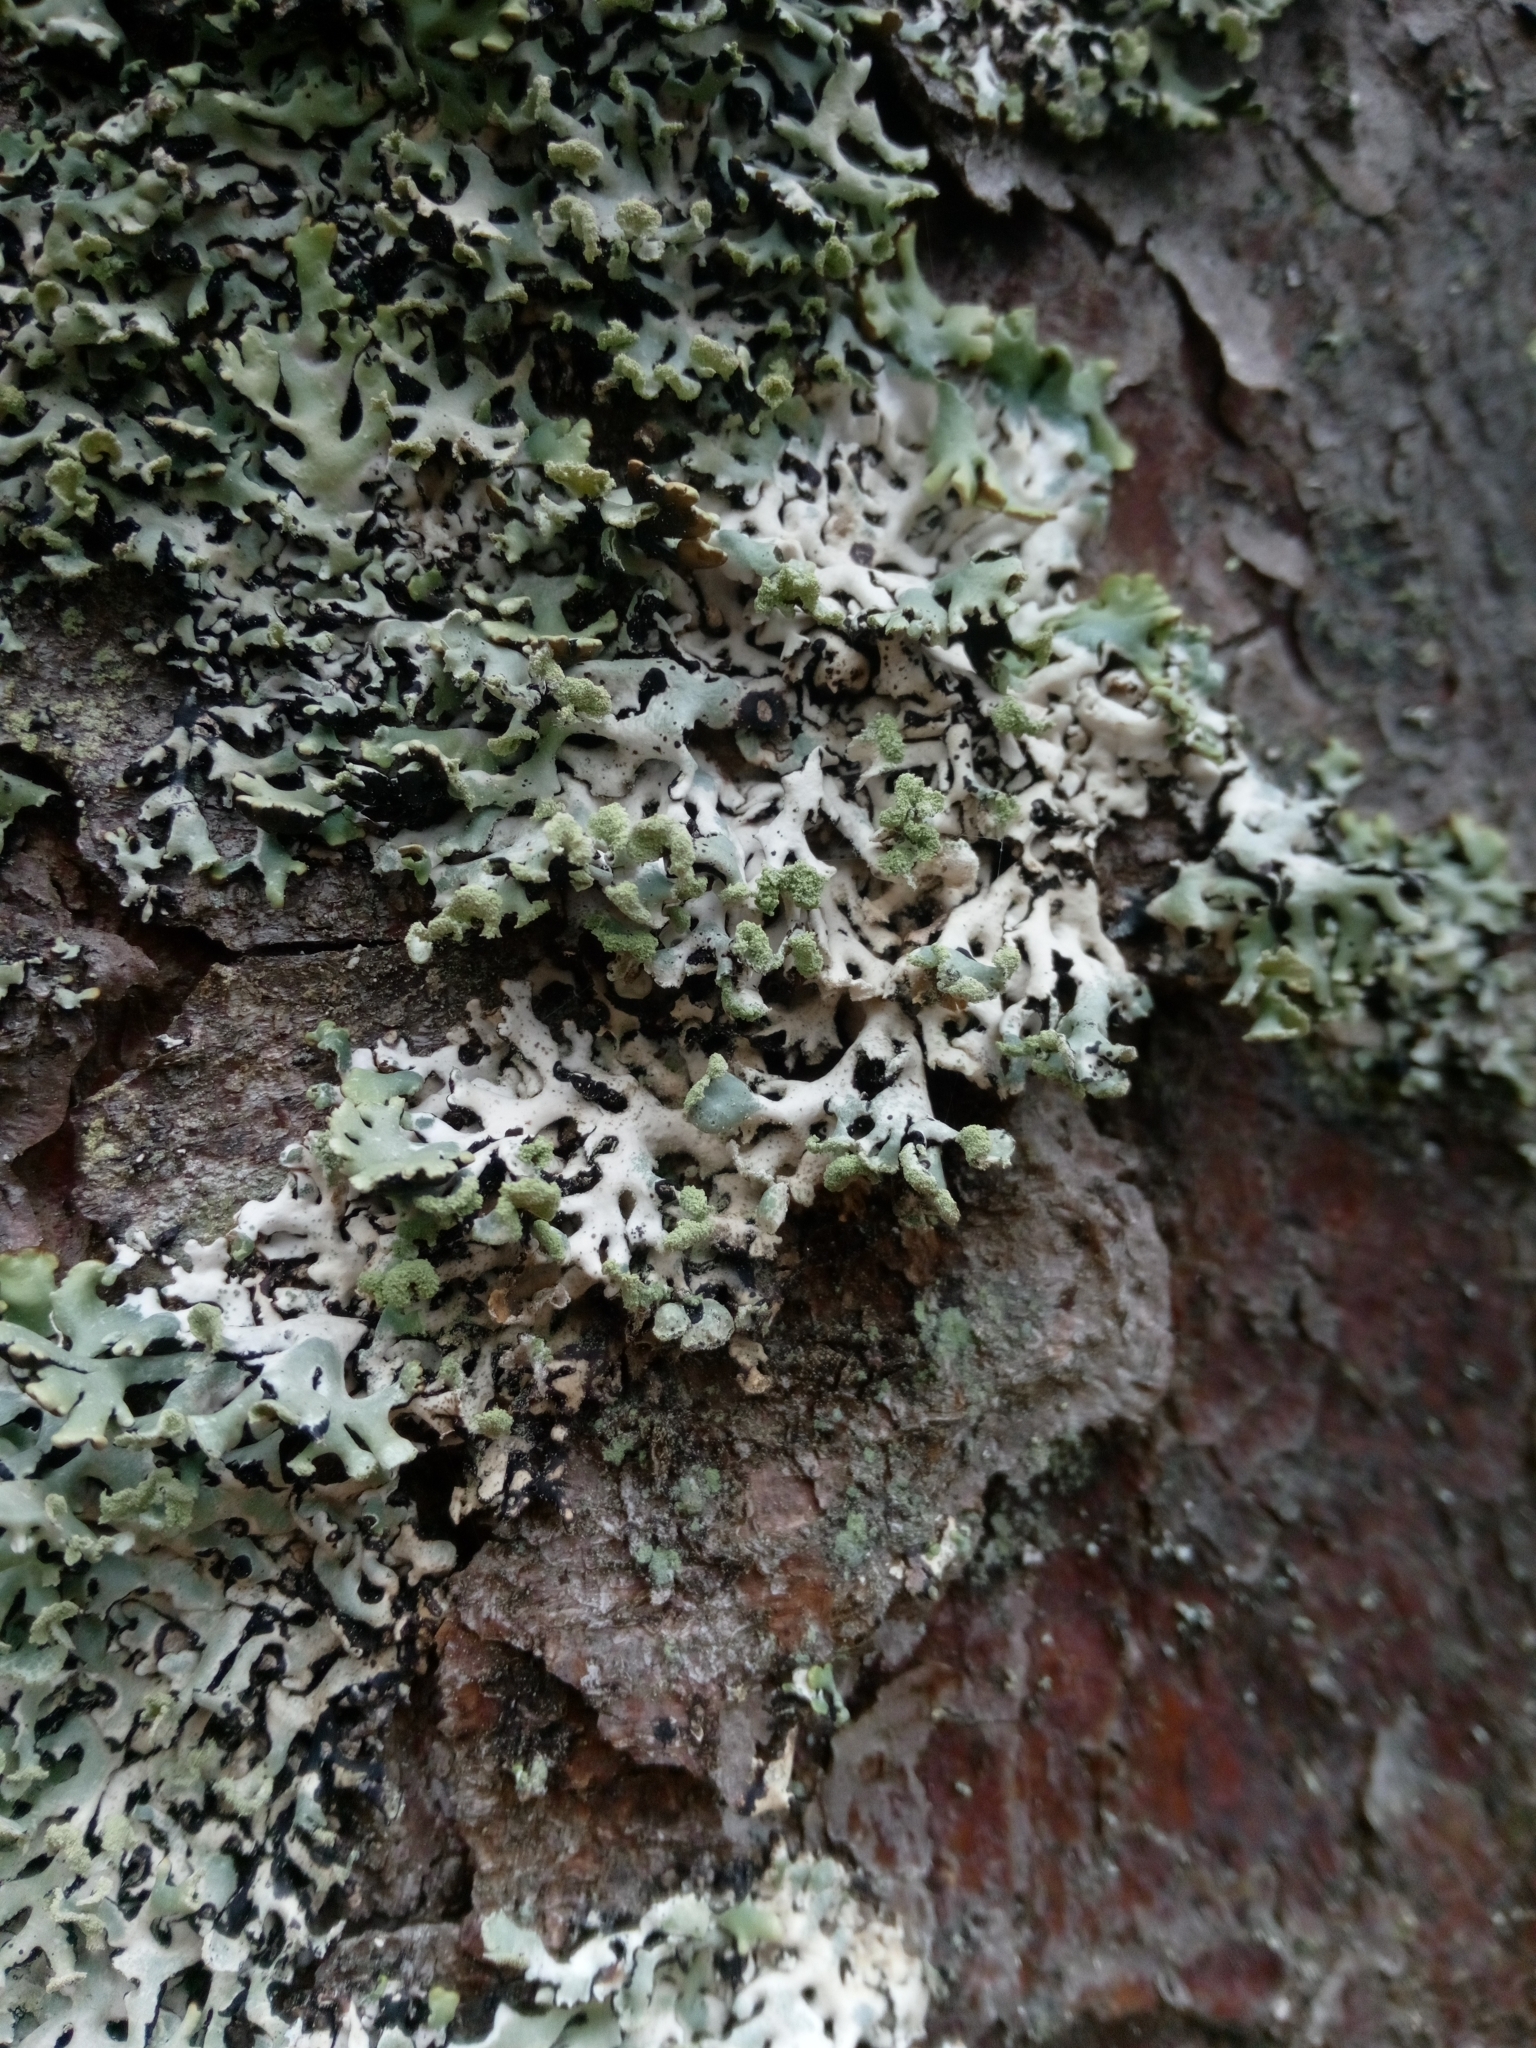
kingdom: Fungi
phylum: Ascomycota
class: Lecanoromycetes
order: Lecanorales
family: Parmeliaceae
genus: Hypogymnia
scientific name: Hypogymnia physodes
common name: Dark crottle
